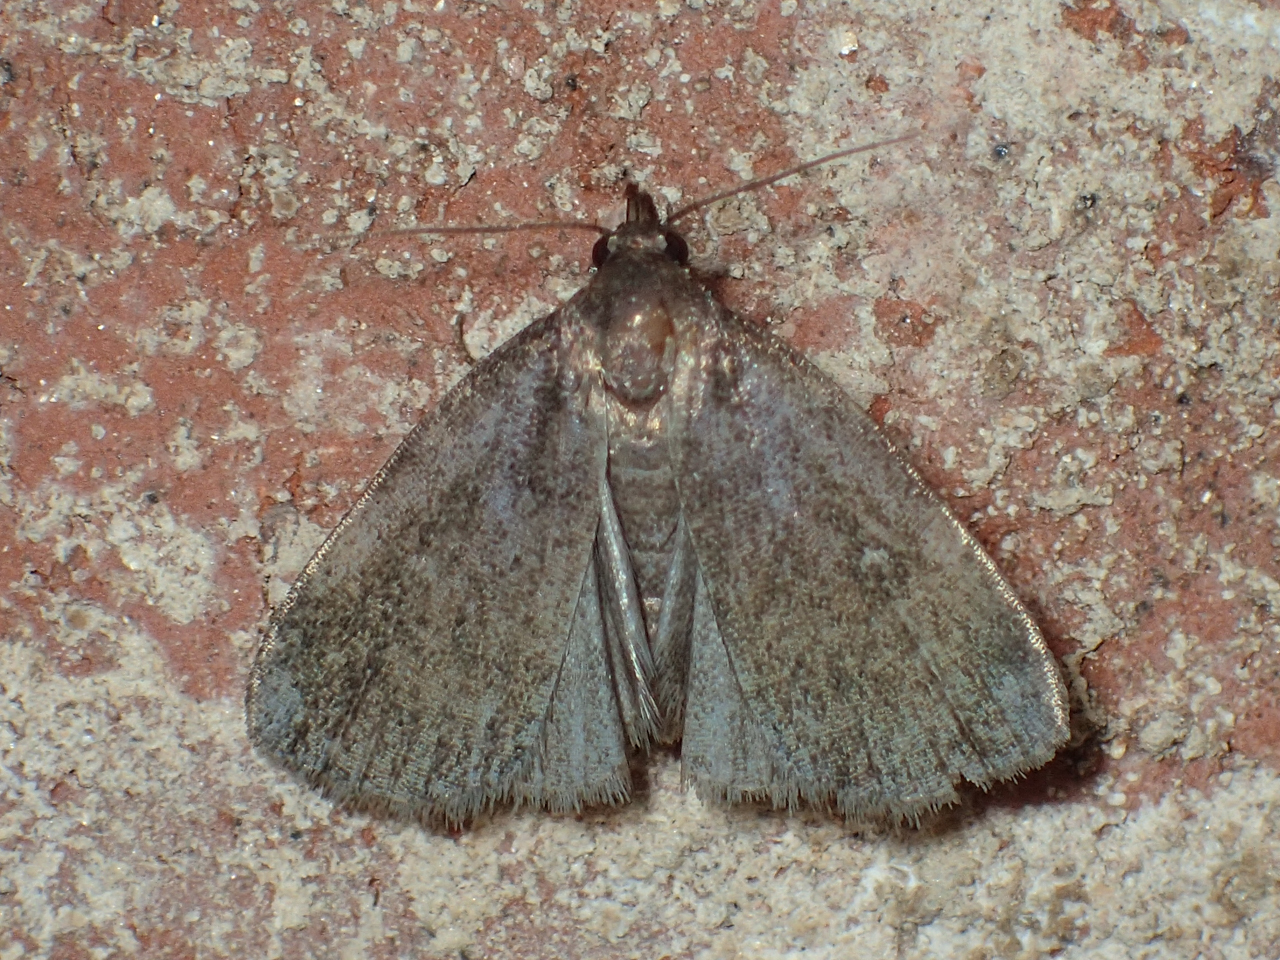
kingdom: Animalia
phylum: Arthropoda
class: Insecta
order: Lepidoptera
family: Erebidae
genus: Idia
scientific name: Idia rotundalis
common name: Rotund idia moth
